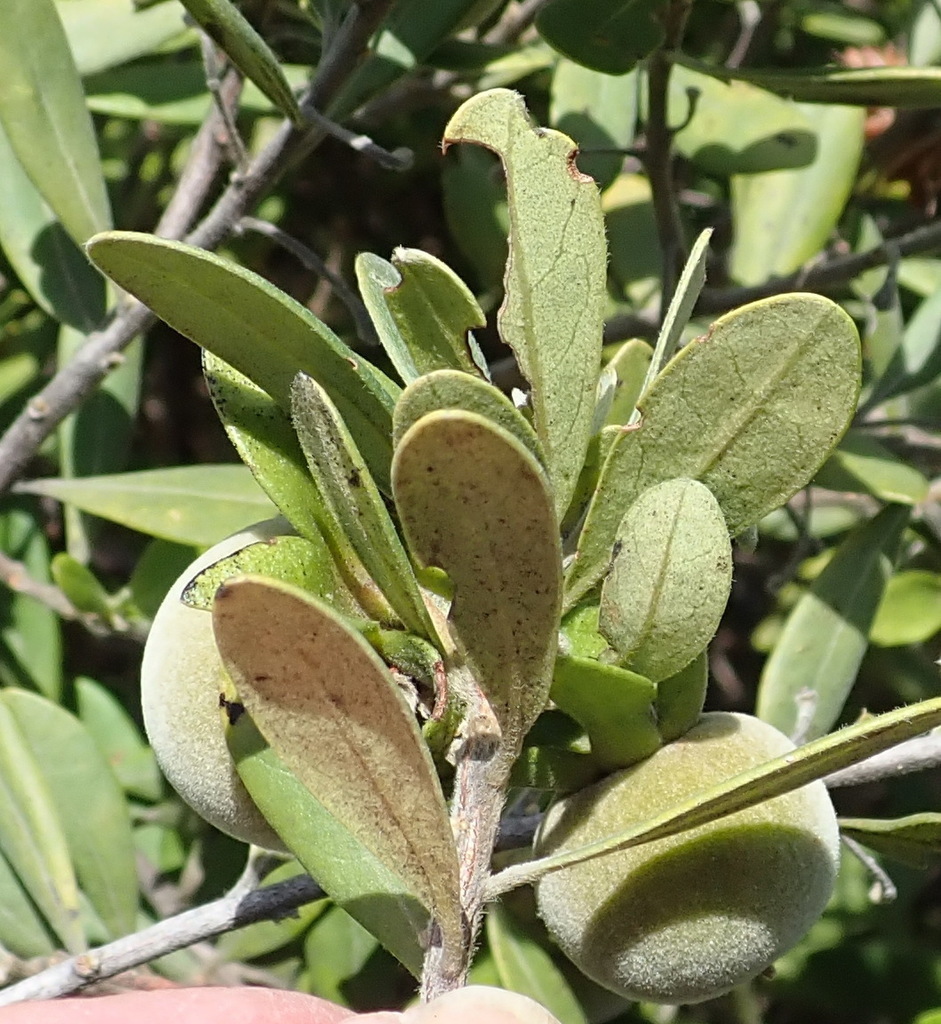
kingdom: Plantae
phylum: Tracheophyta
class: Magnoliopsida
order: Ericales
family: Ebenaceae
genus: Diospyros
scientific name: Diospyros dichrophylla
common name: Common star-apple
